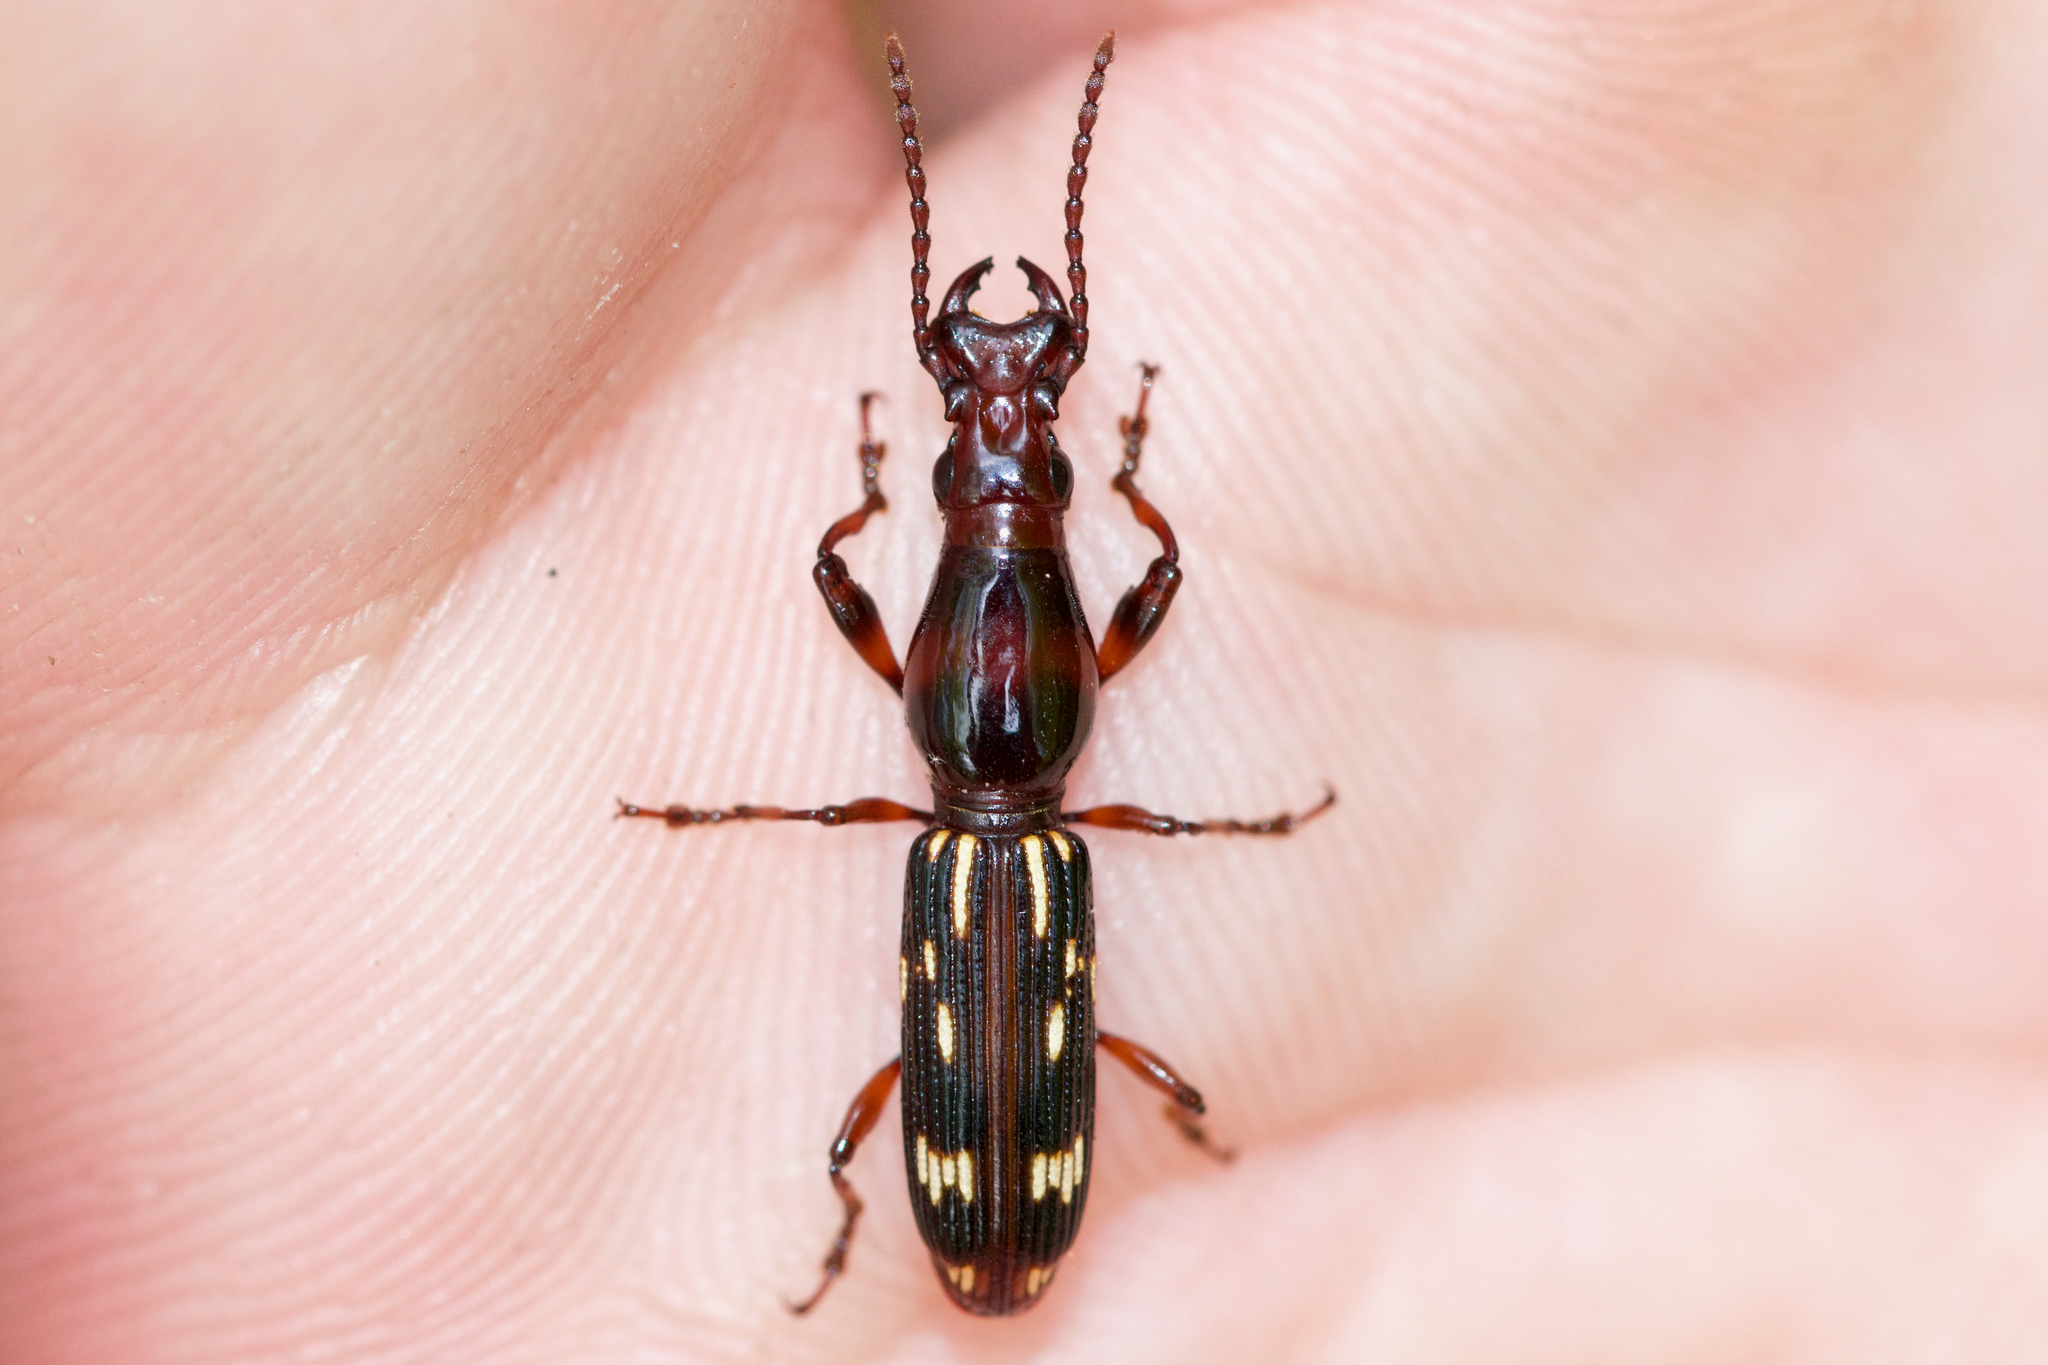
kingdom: Animalia
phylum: Arthropoda
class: Insecta
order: Coleoptera
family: Brentidae
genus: Arrenodes
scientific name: Arrenodes minutus
